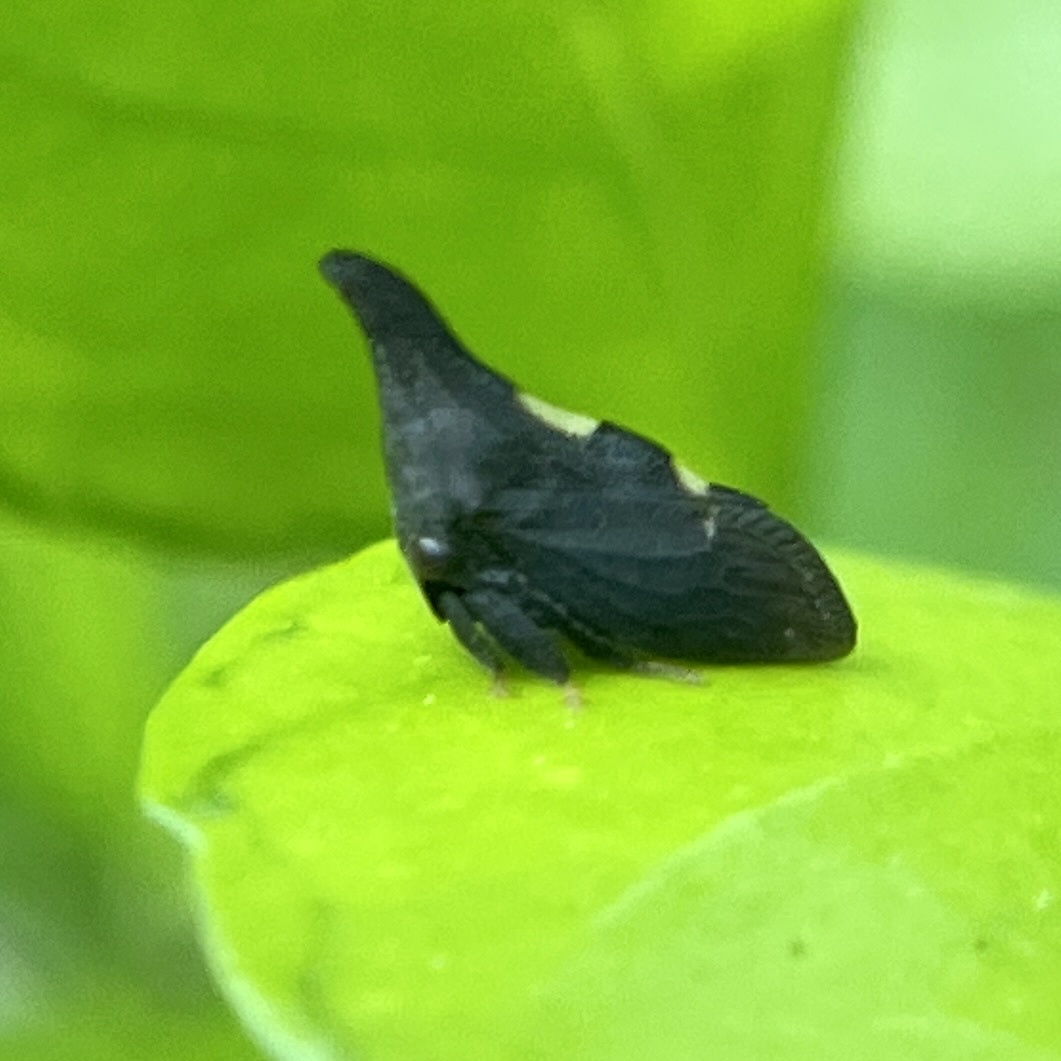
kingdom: Animalia
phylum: Arthropoda
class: Insecta
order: Hemiptera
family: Membracidae
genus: Enchenopa
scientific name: Enchenopa
